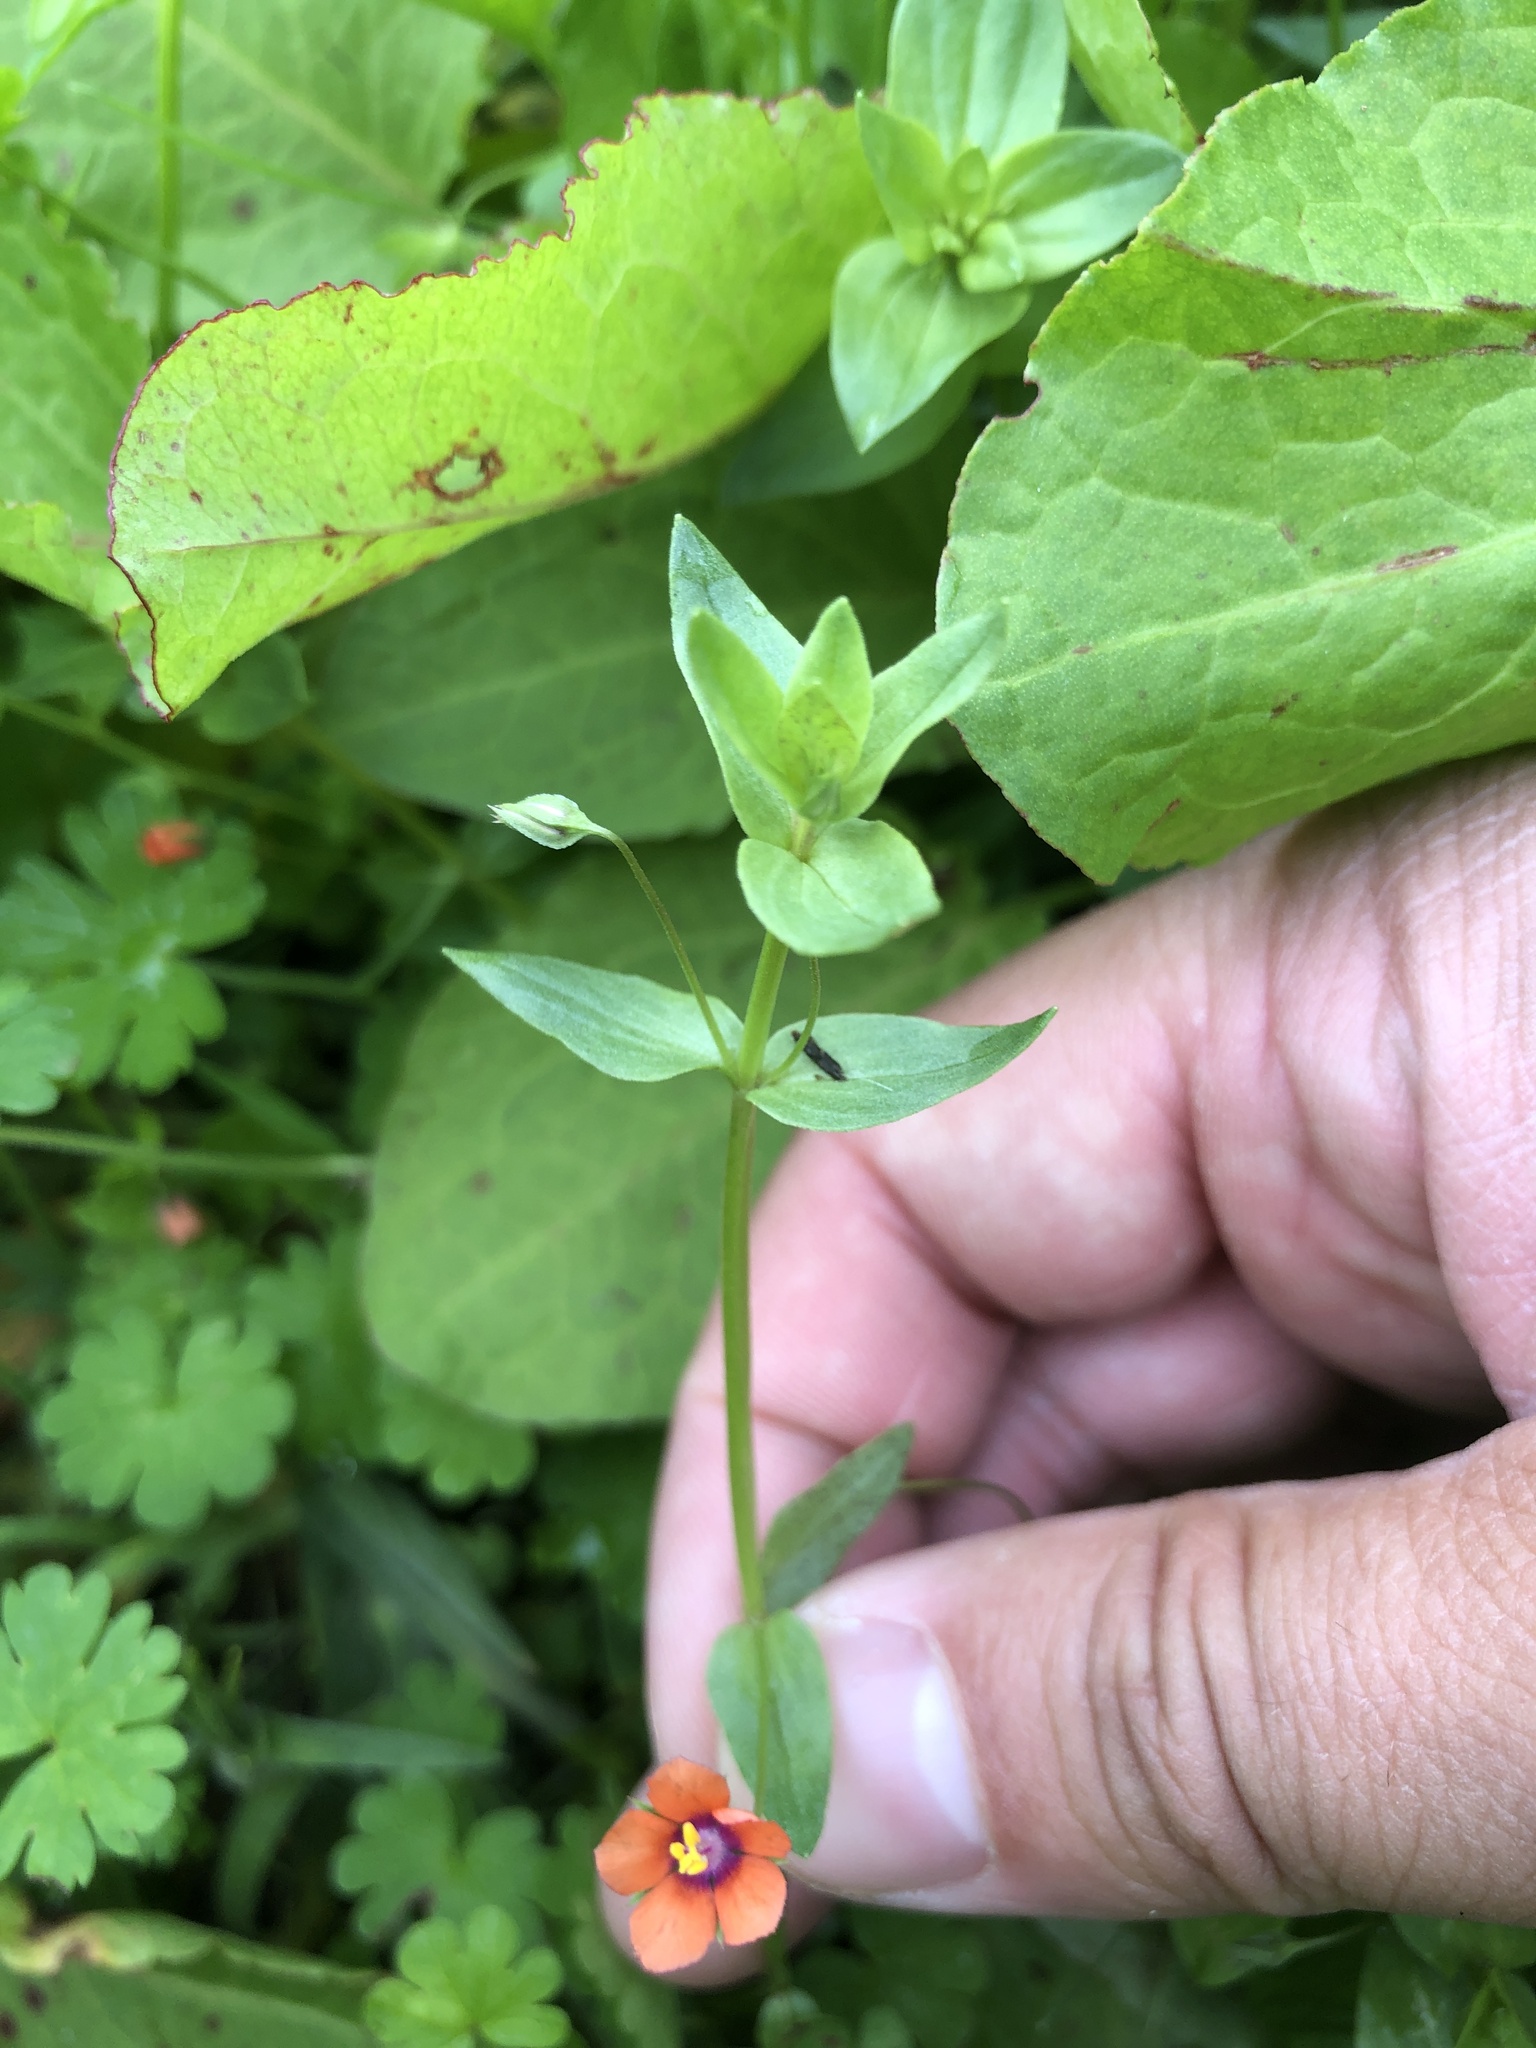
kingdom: Plantae
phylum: Tracheophyta
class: Magnoliopsida
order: Ericales
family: Primulaceae
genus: Lysimachia
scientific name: Lysimachia arvensis
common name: Scarlet pimpernel
